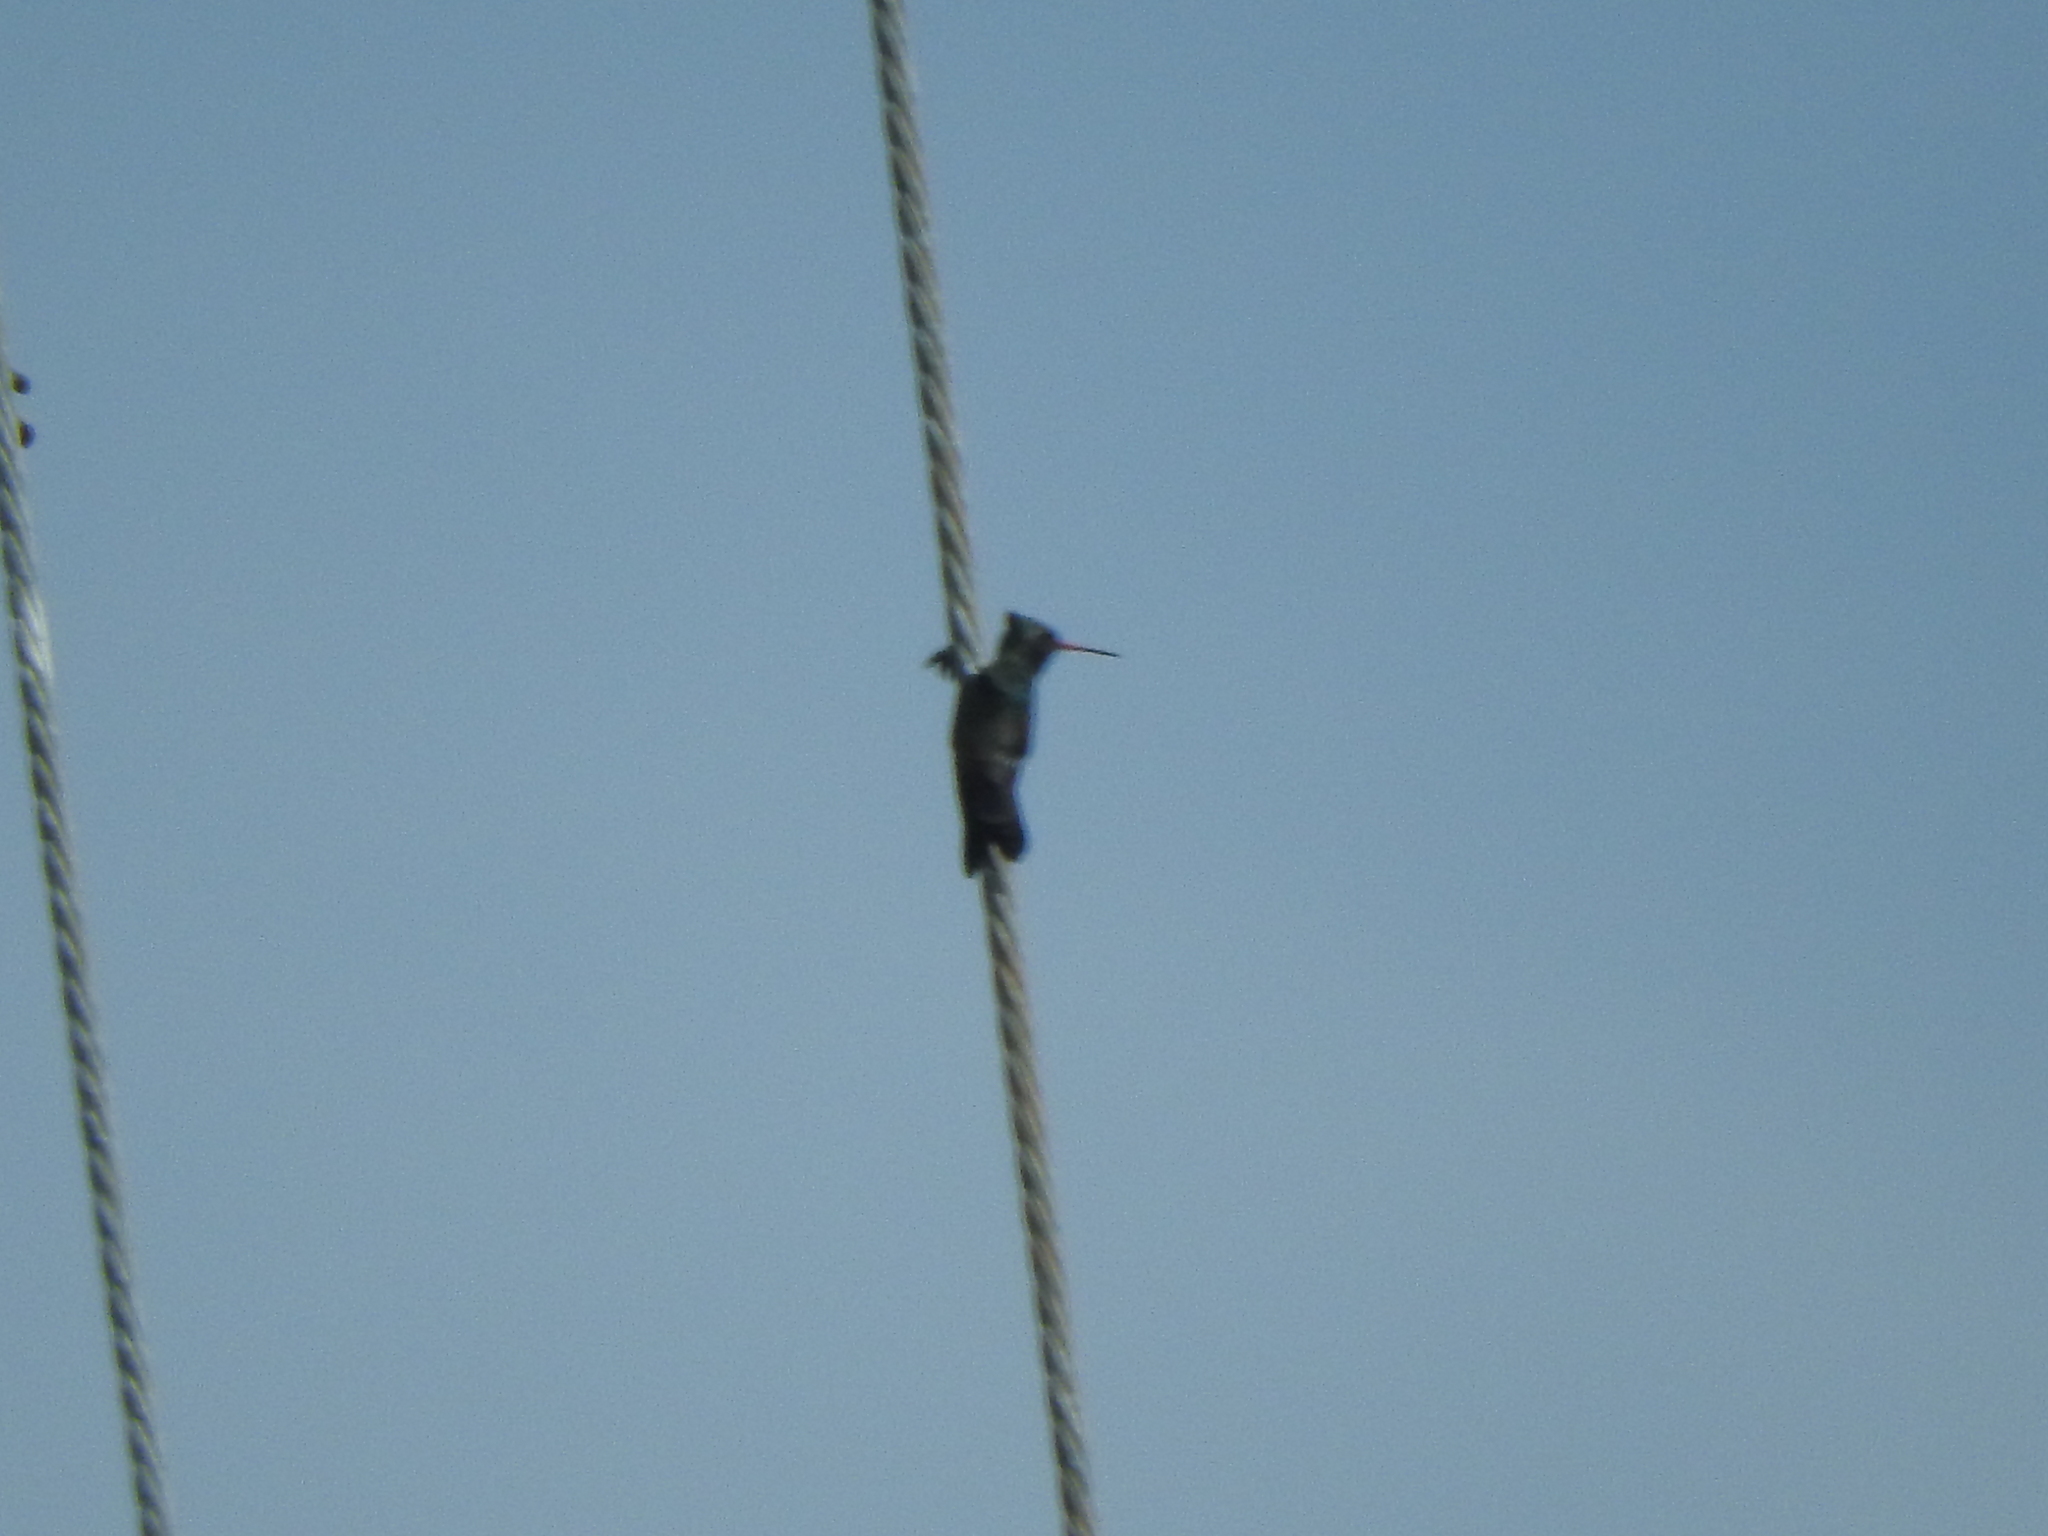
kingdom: Animalia
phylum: Chordata
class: Aves
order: Apodiformes
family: Trochilidae
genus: Cynanthus
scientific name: Cynanthus latirostris
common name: Broad-billed hummingbird
